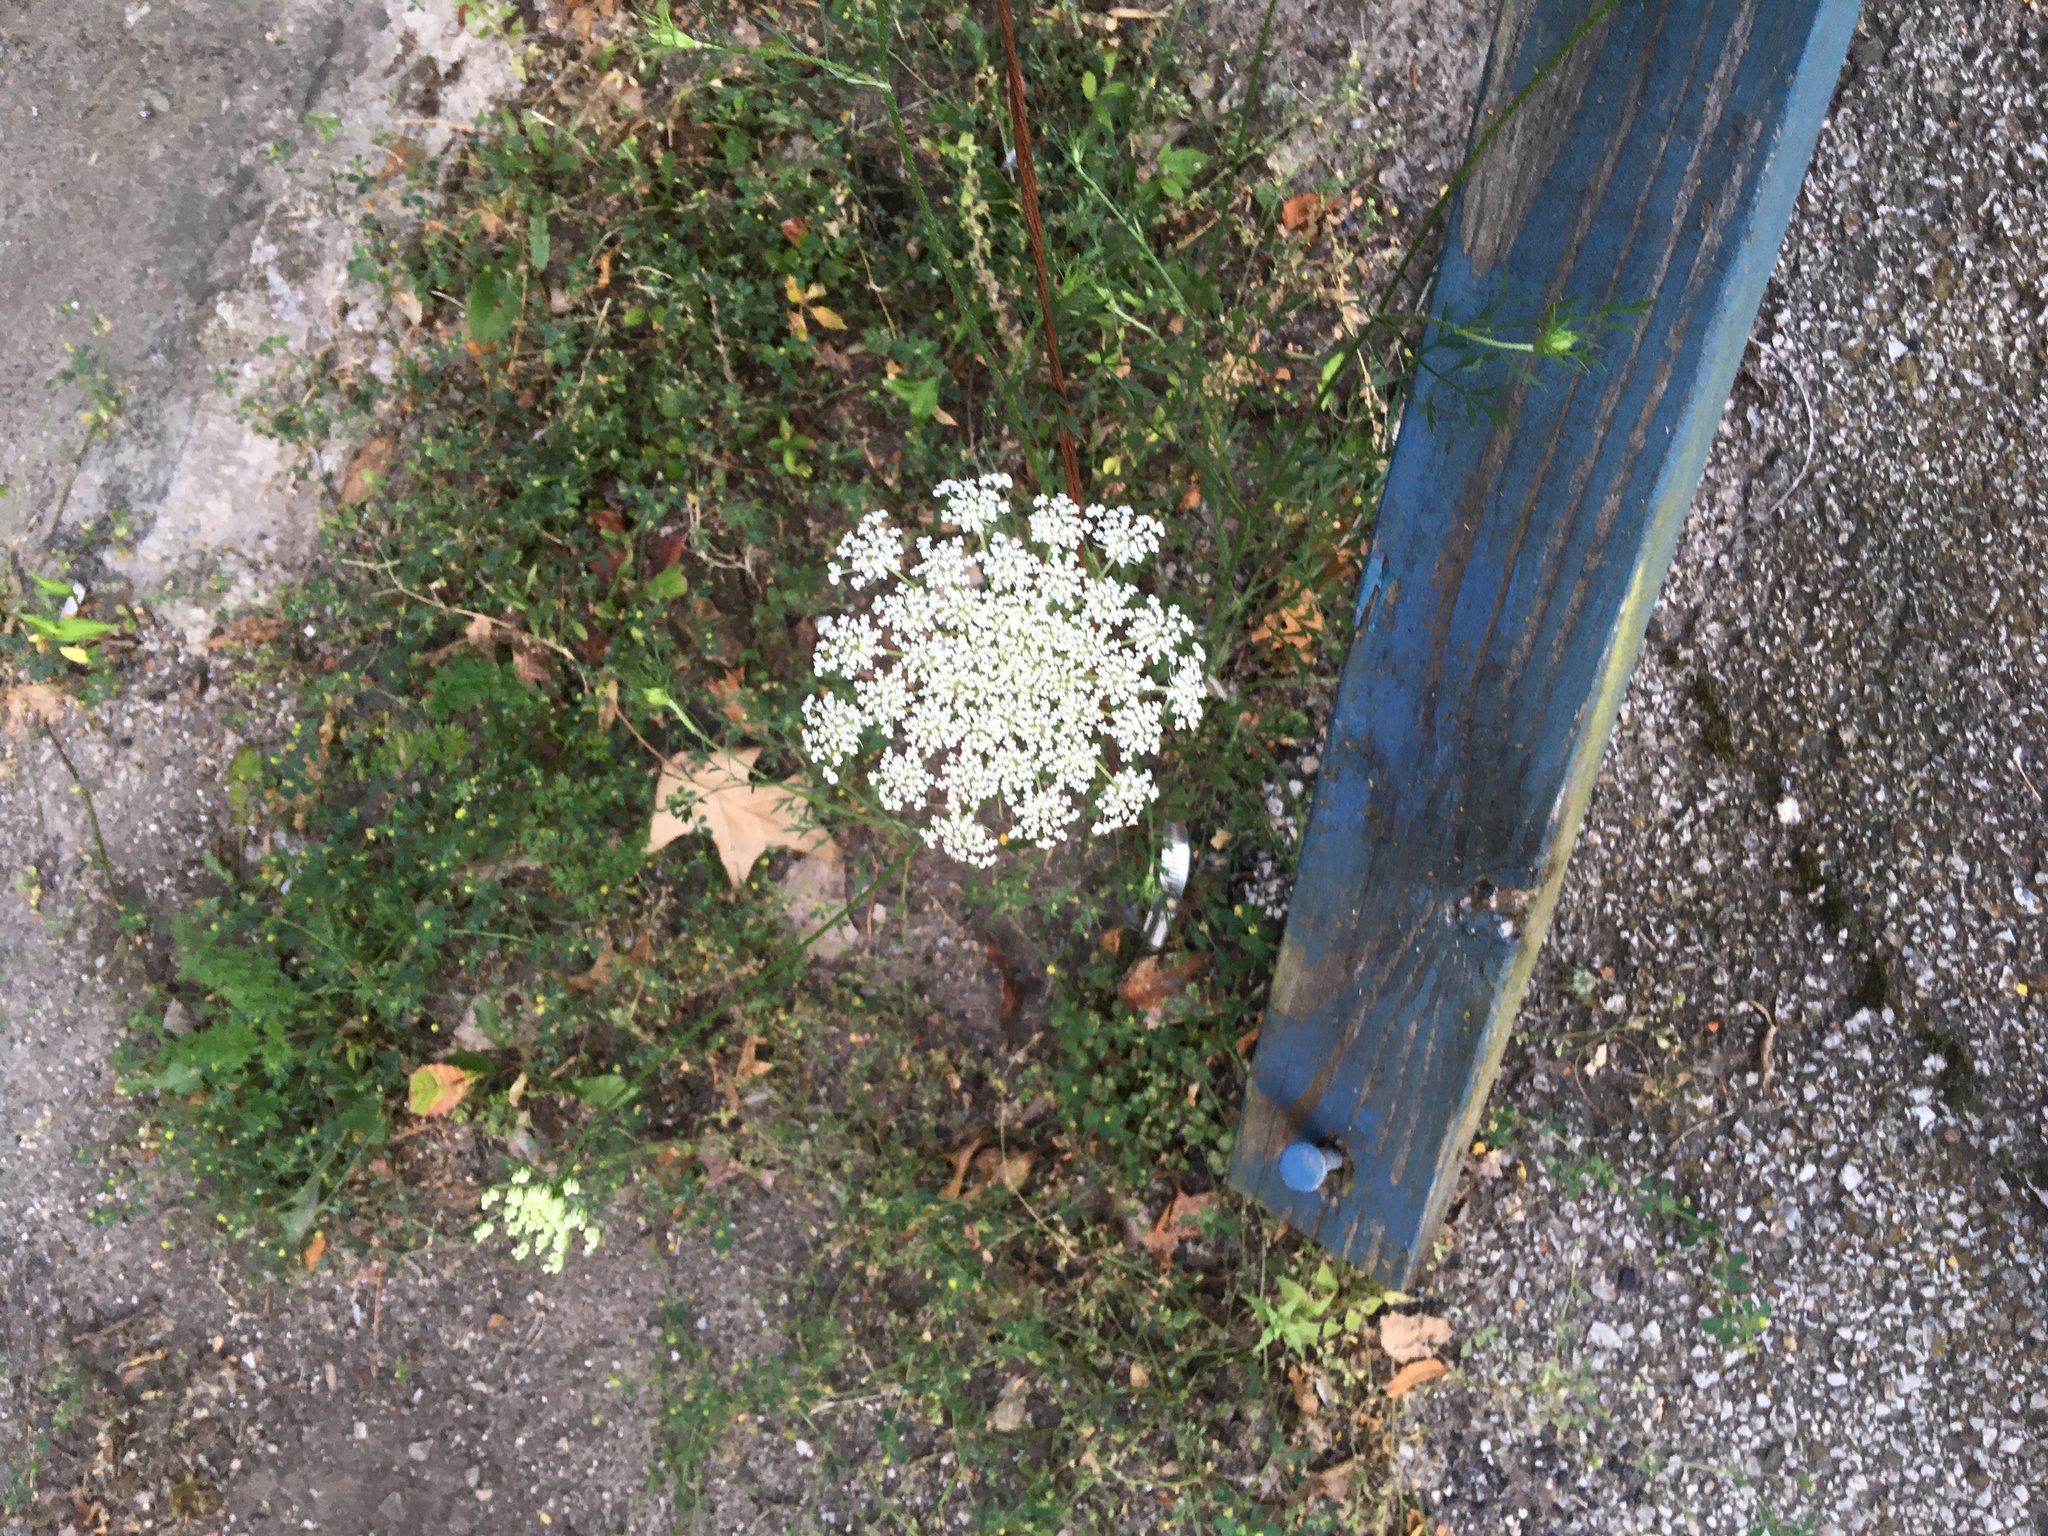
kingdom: Plantae
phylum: Tracheophyta
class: Magnoliopsida
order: Apiales
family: Apiaceae
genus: Daucus
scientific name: Daucus carota
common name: Wild carrot
